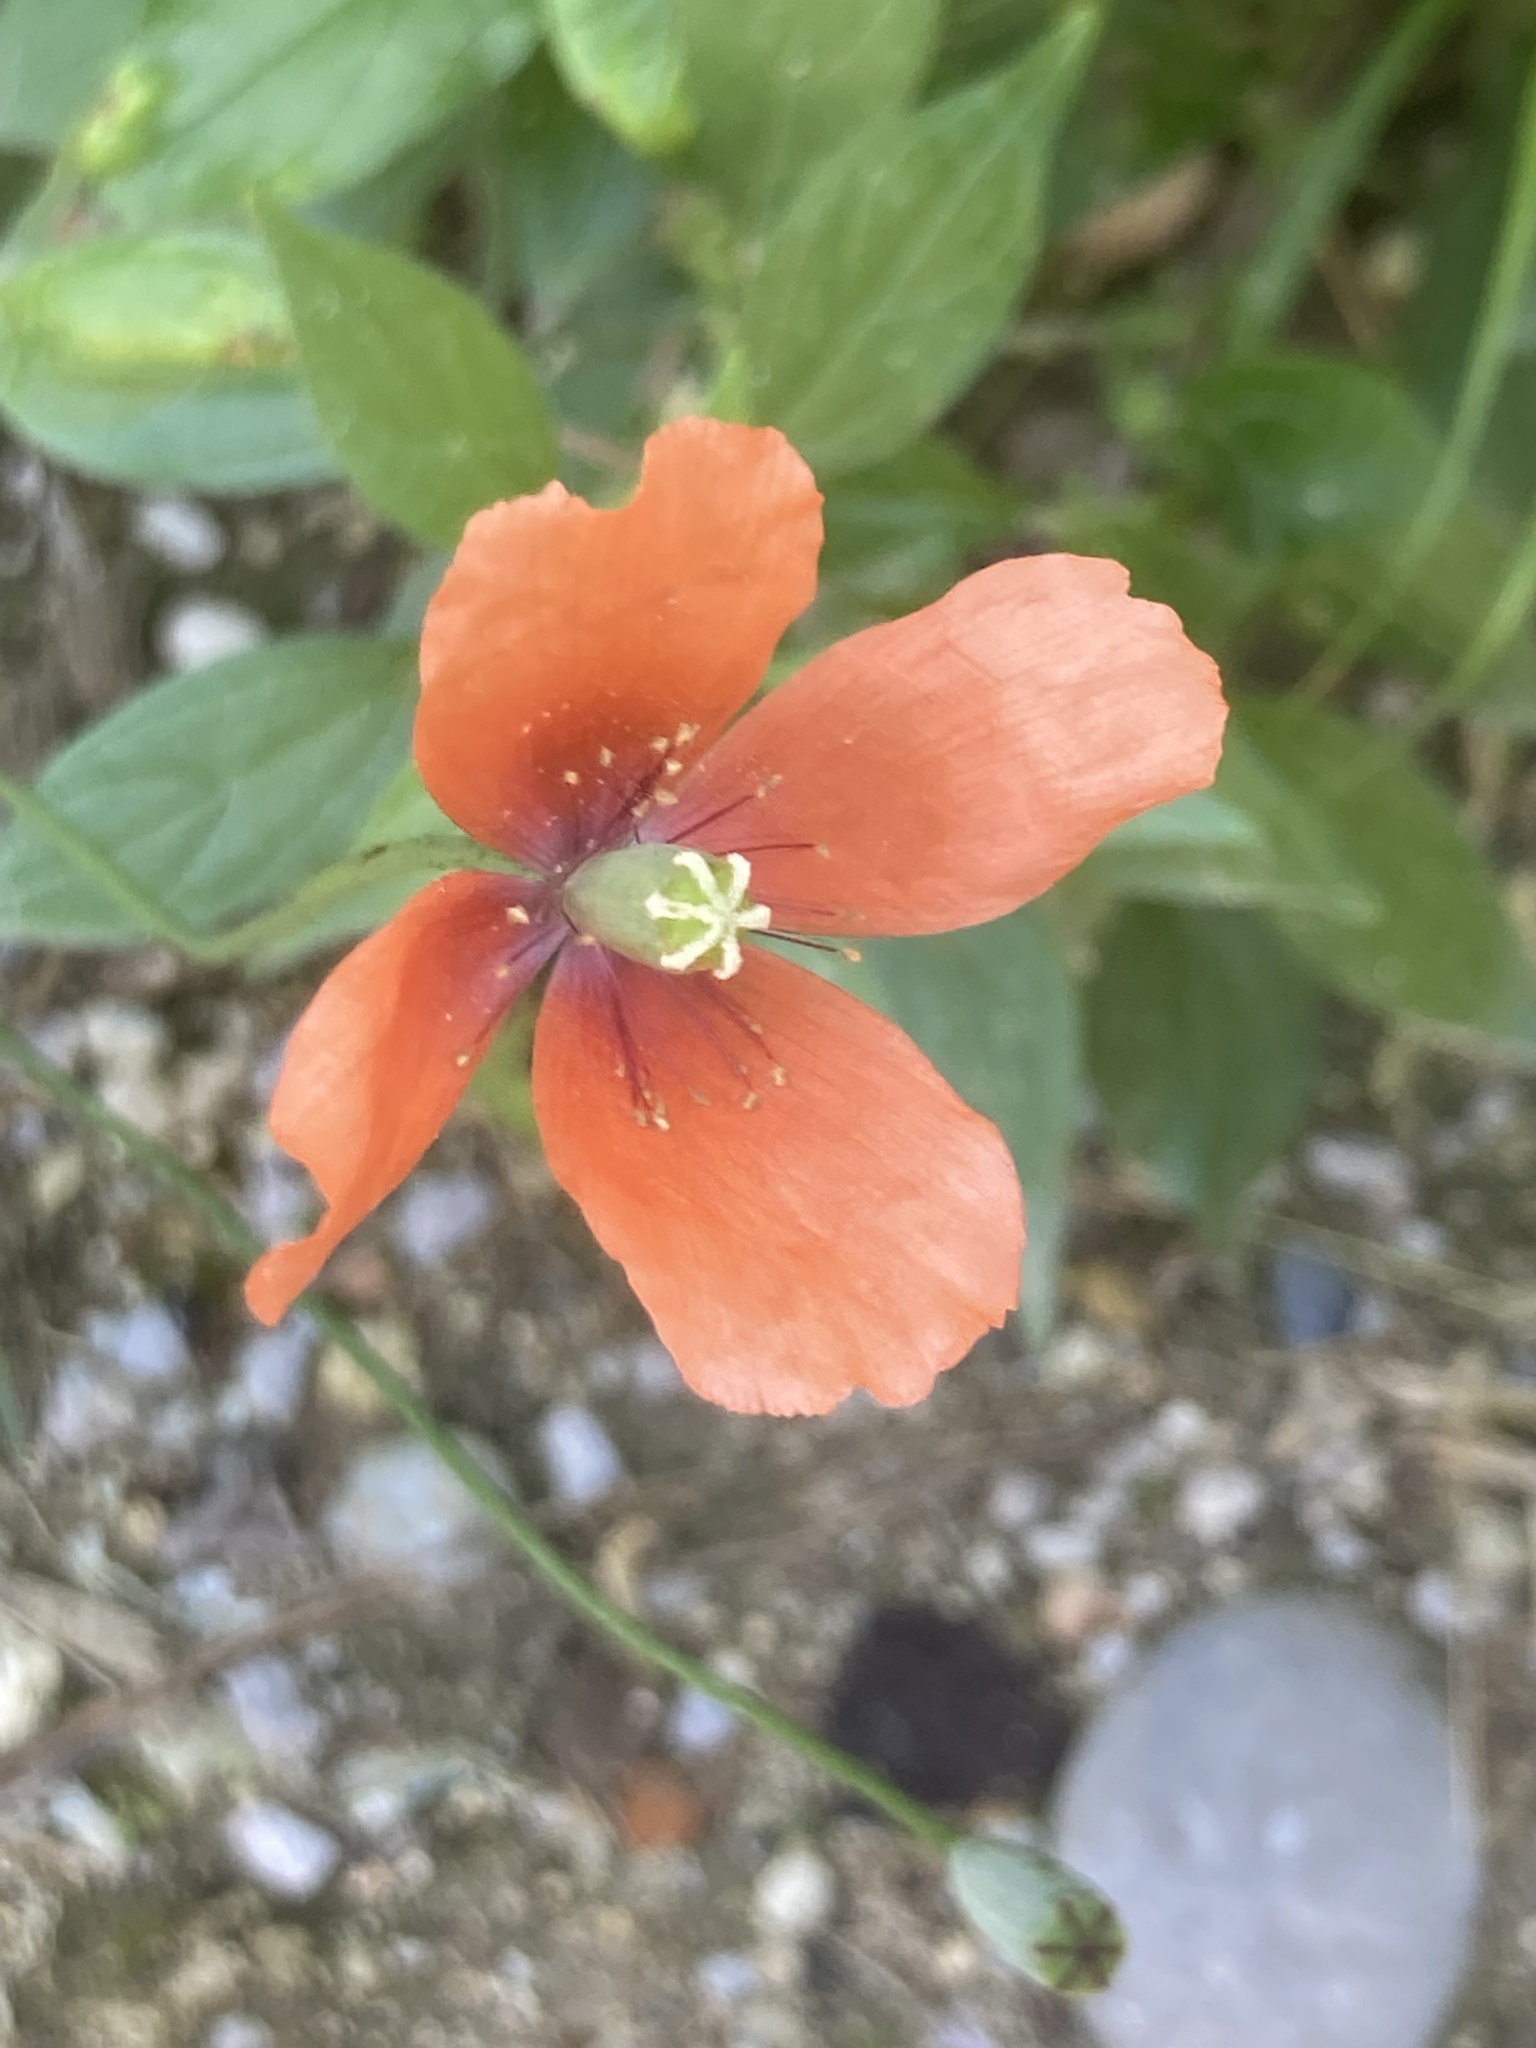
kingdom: Plantae
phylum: Tracheophyta
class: Magnoliopsida
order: Ranunculales
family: Papaveraceae
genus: Papaver
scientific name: Papaver dubium
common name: Long-headed poppy
